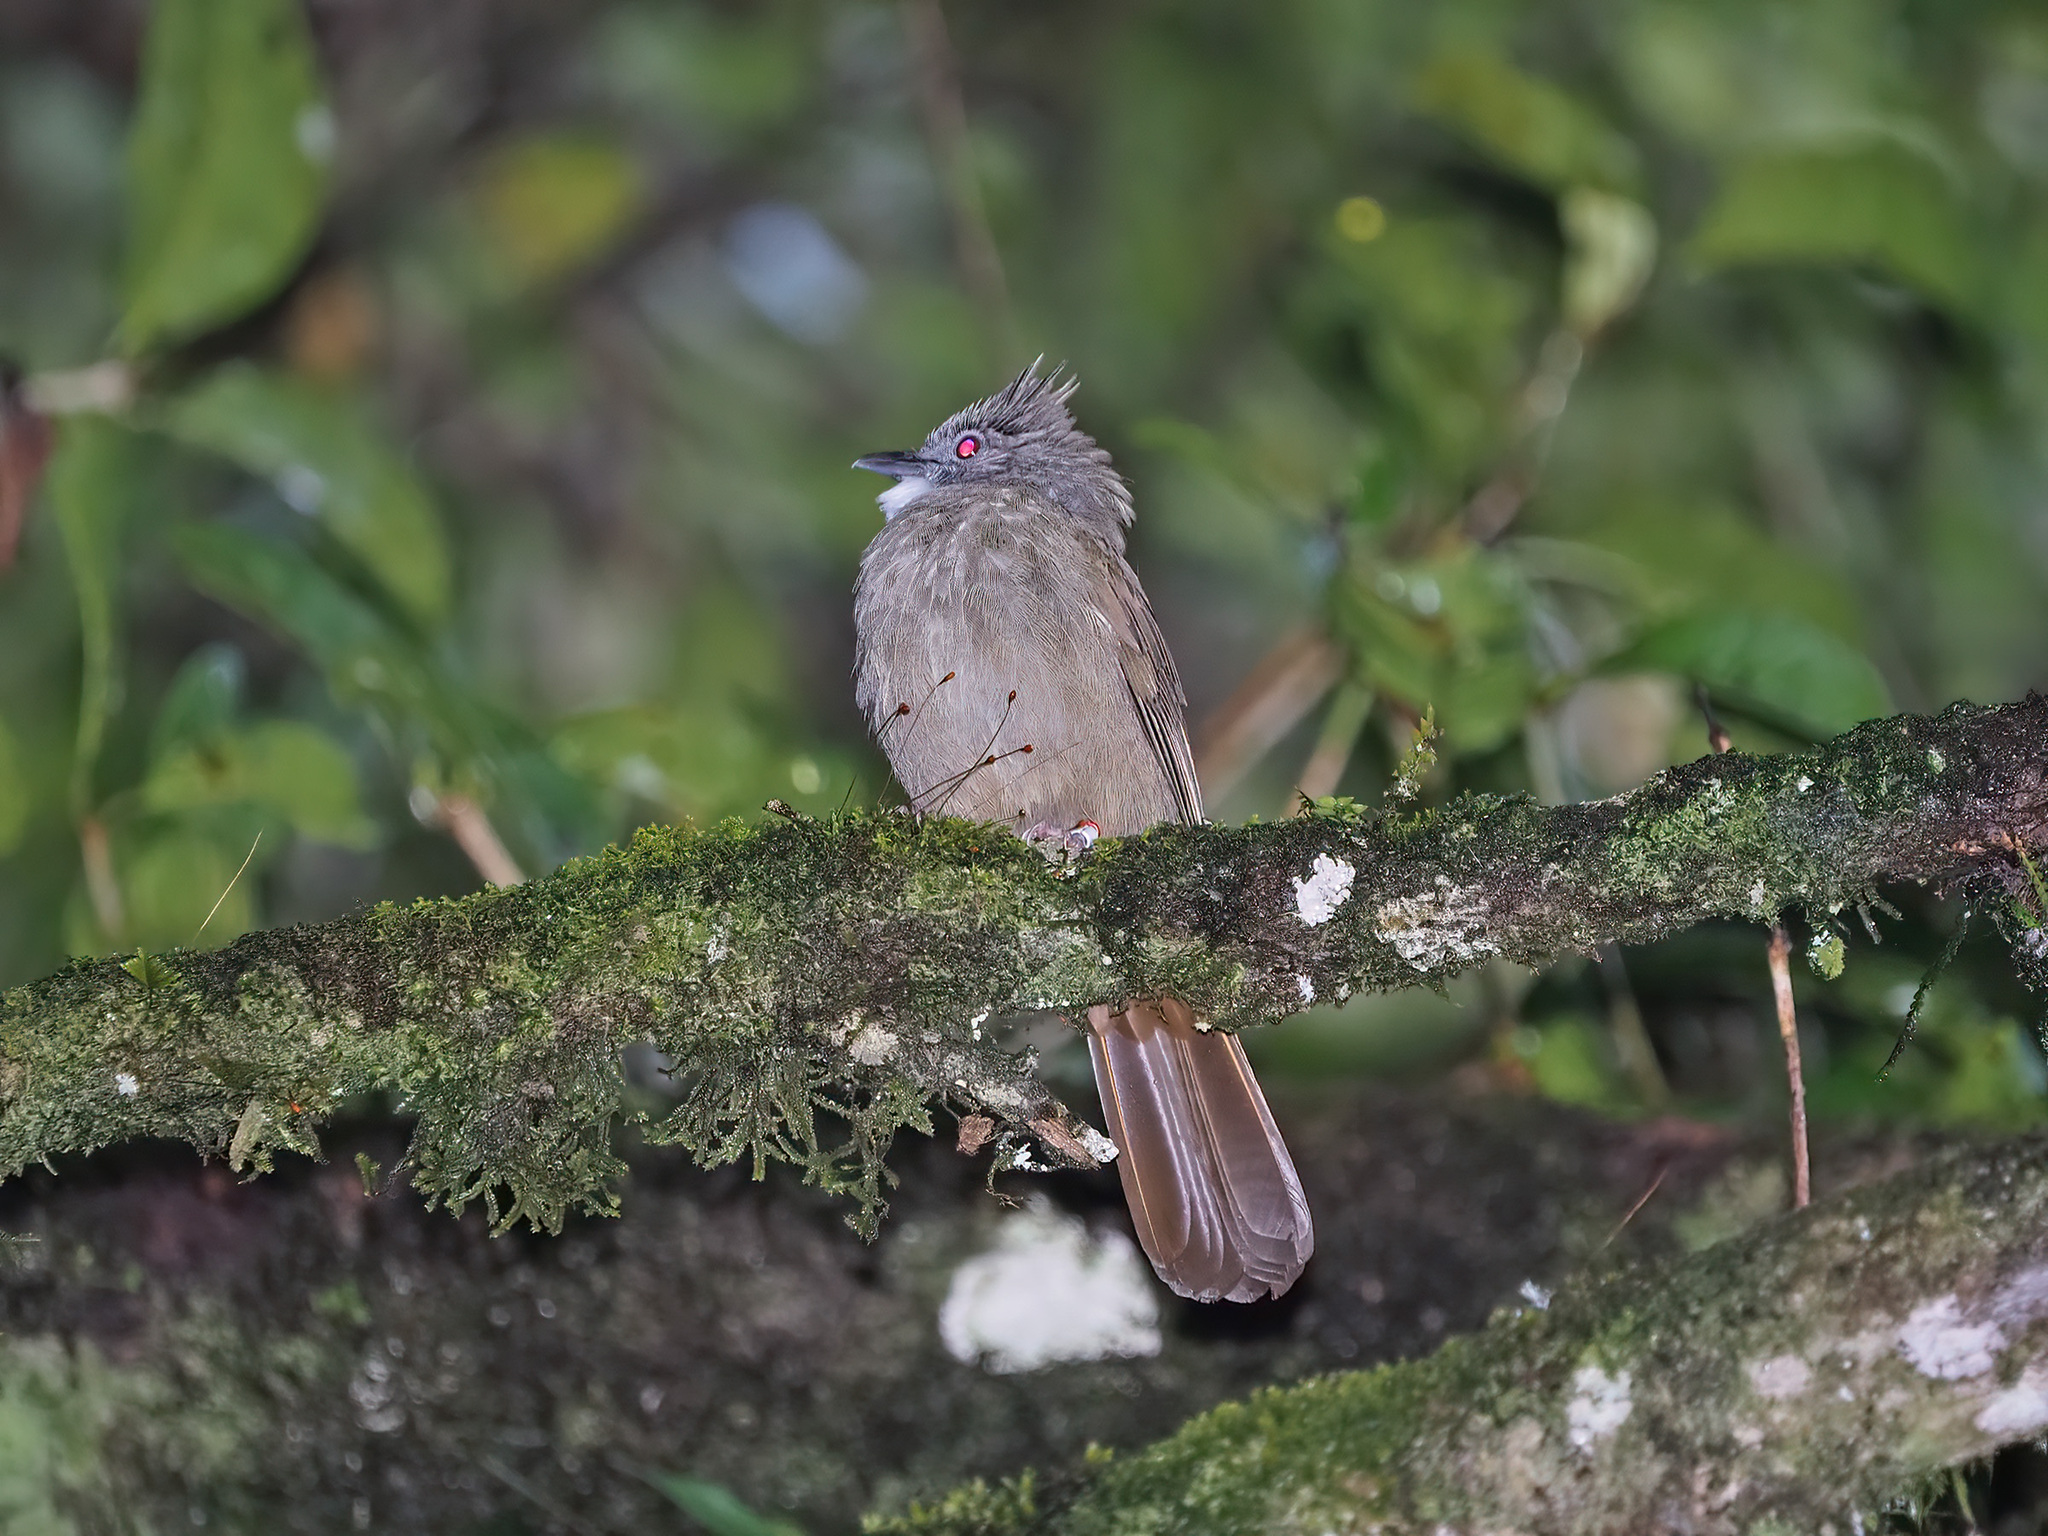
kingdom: Animalia
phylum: Chordata
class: Aves
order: Passeriformes
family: Pycnonotidae
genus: Alophoixus
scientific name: Alophoixus ochraceus
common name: Ochraceous bulbul
